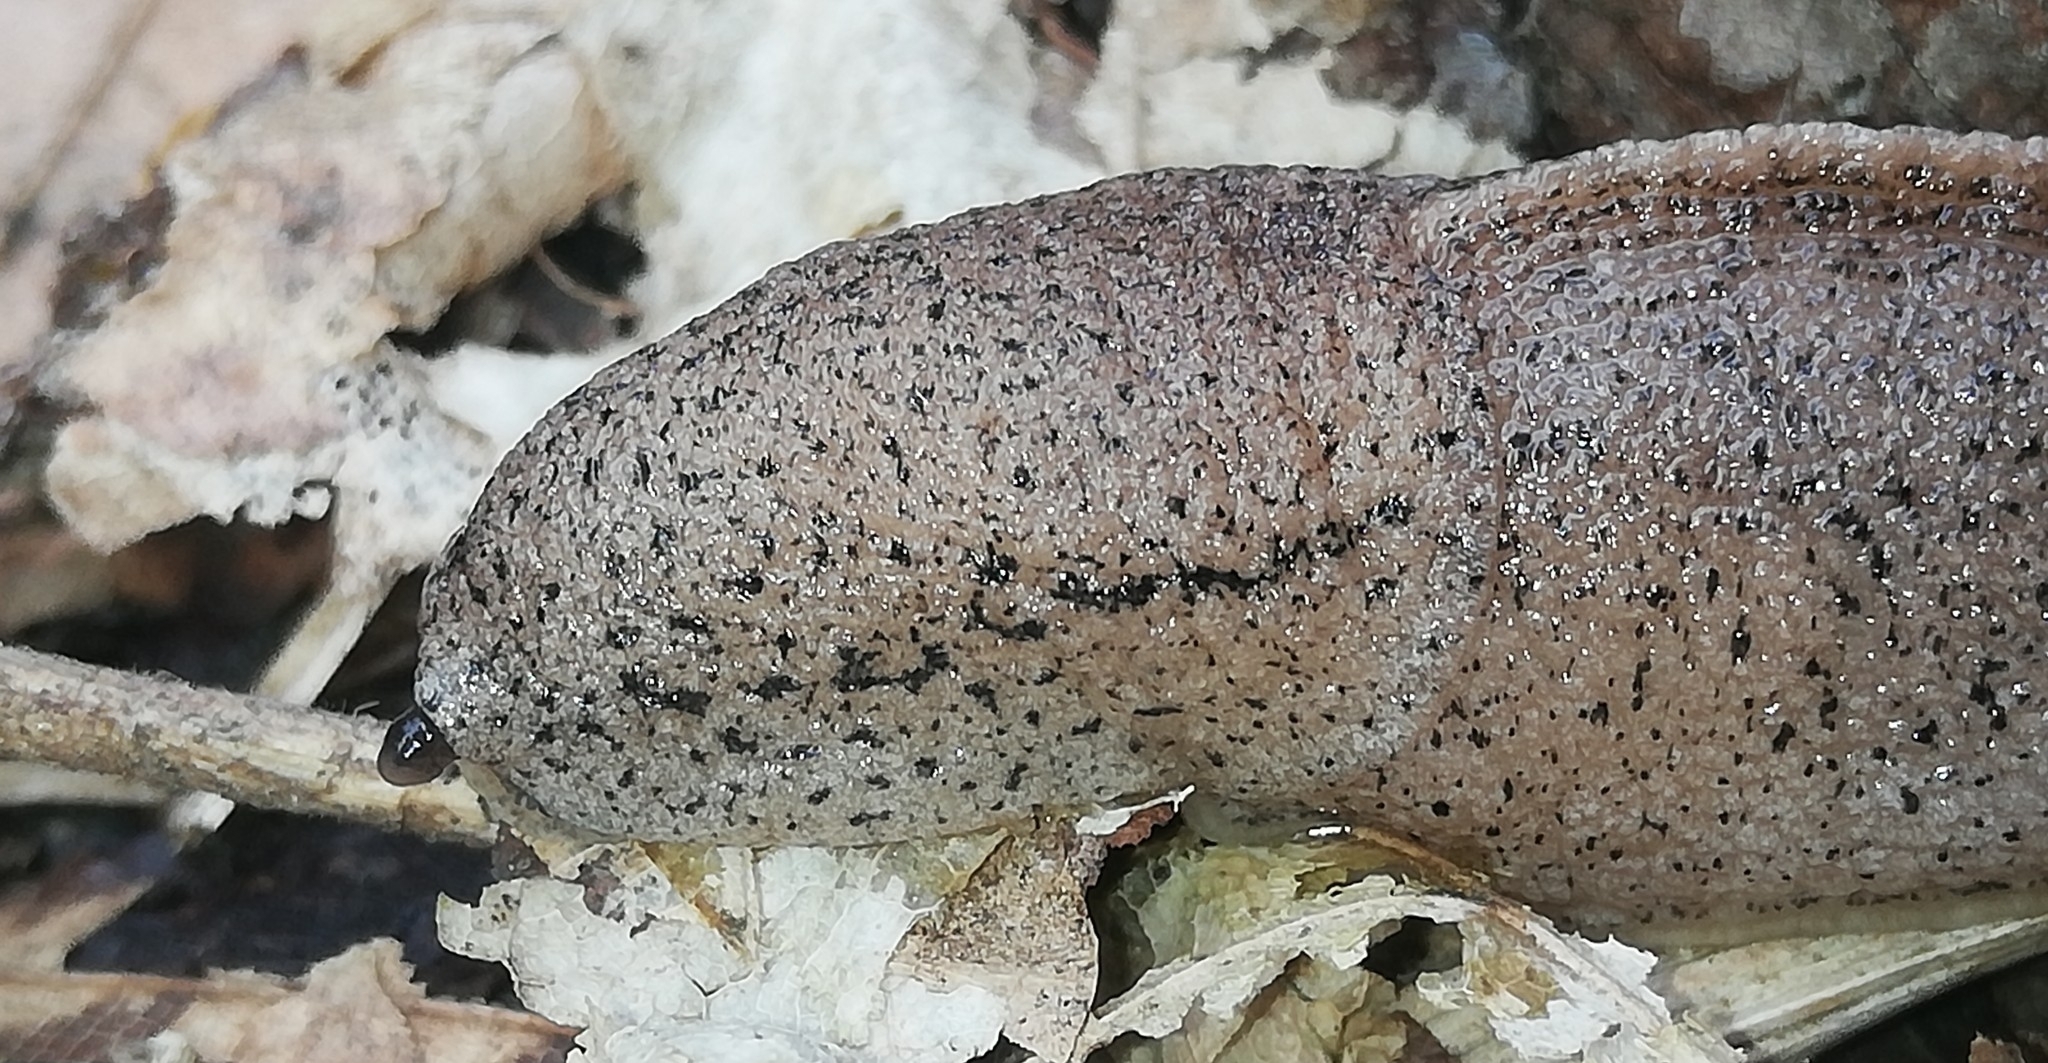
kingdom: Animalia
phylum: Mollusca
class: Gastropoda
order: Stylommatophora
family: Milacidae
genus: Tandonia
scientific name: Tandonia rustica
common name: Bulb-eating slug
